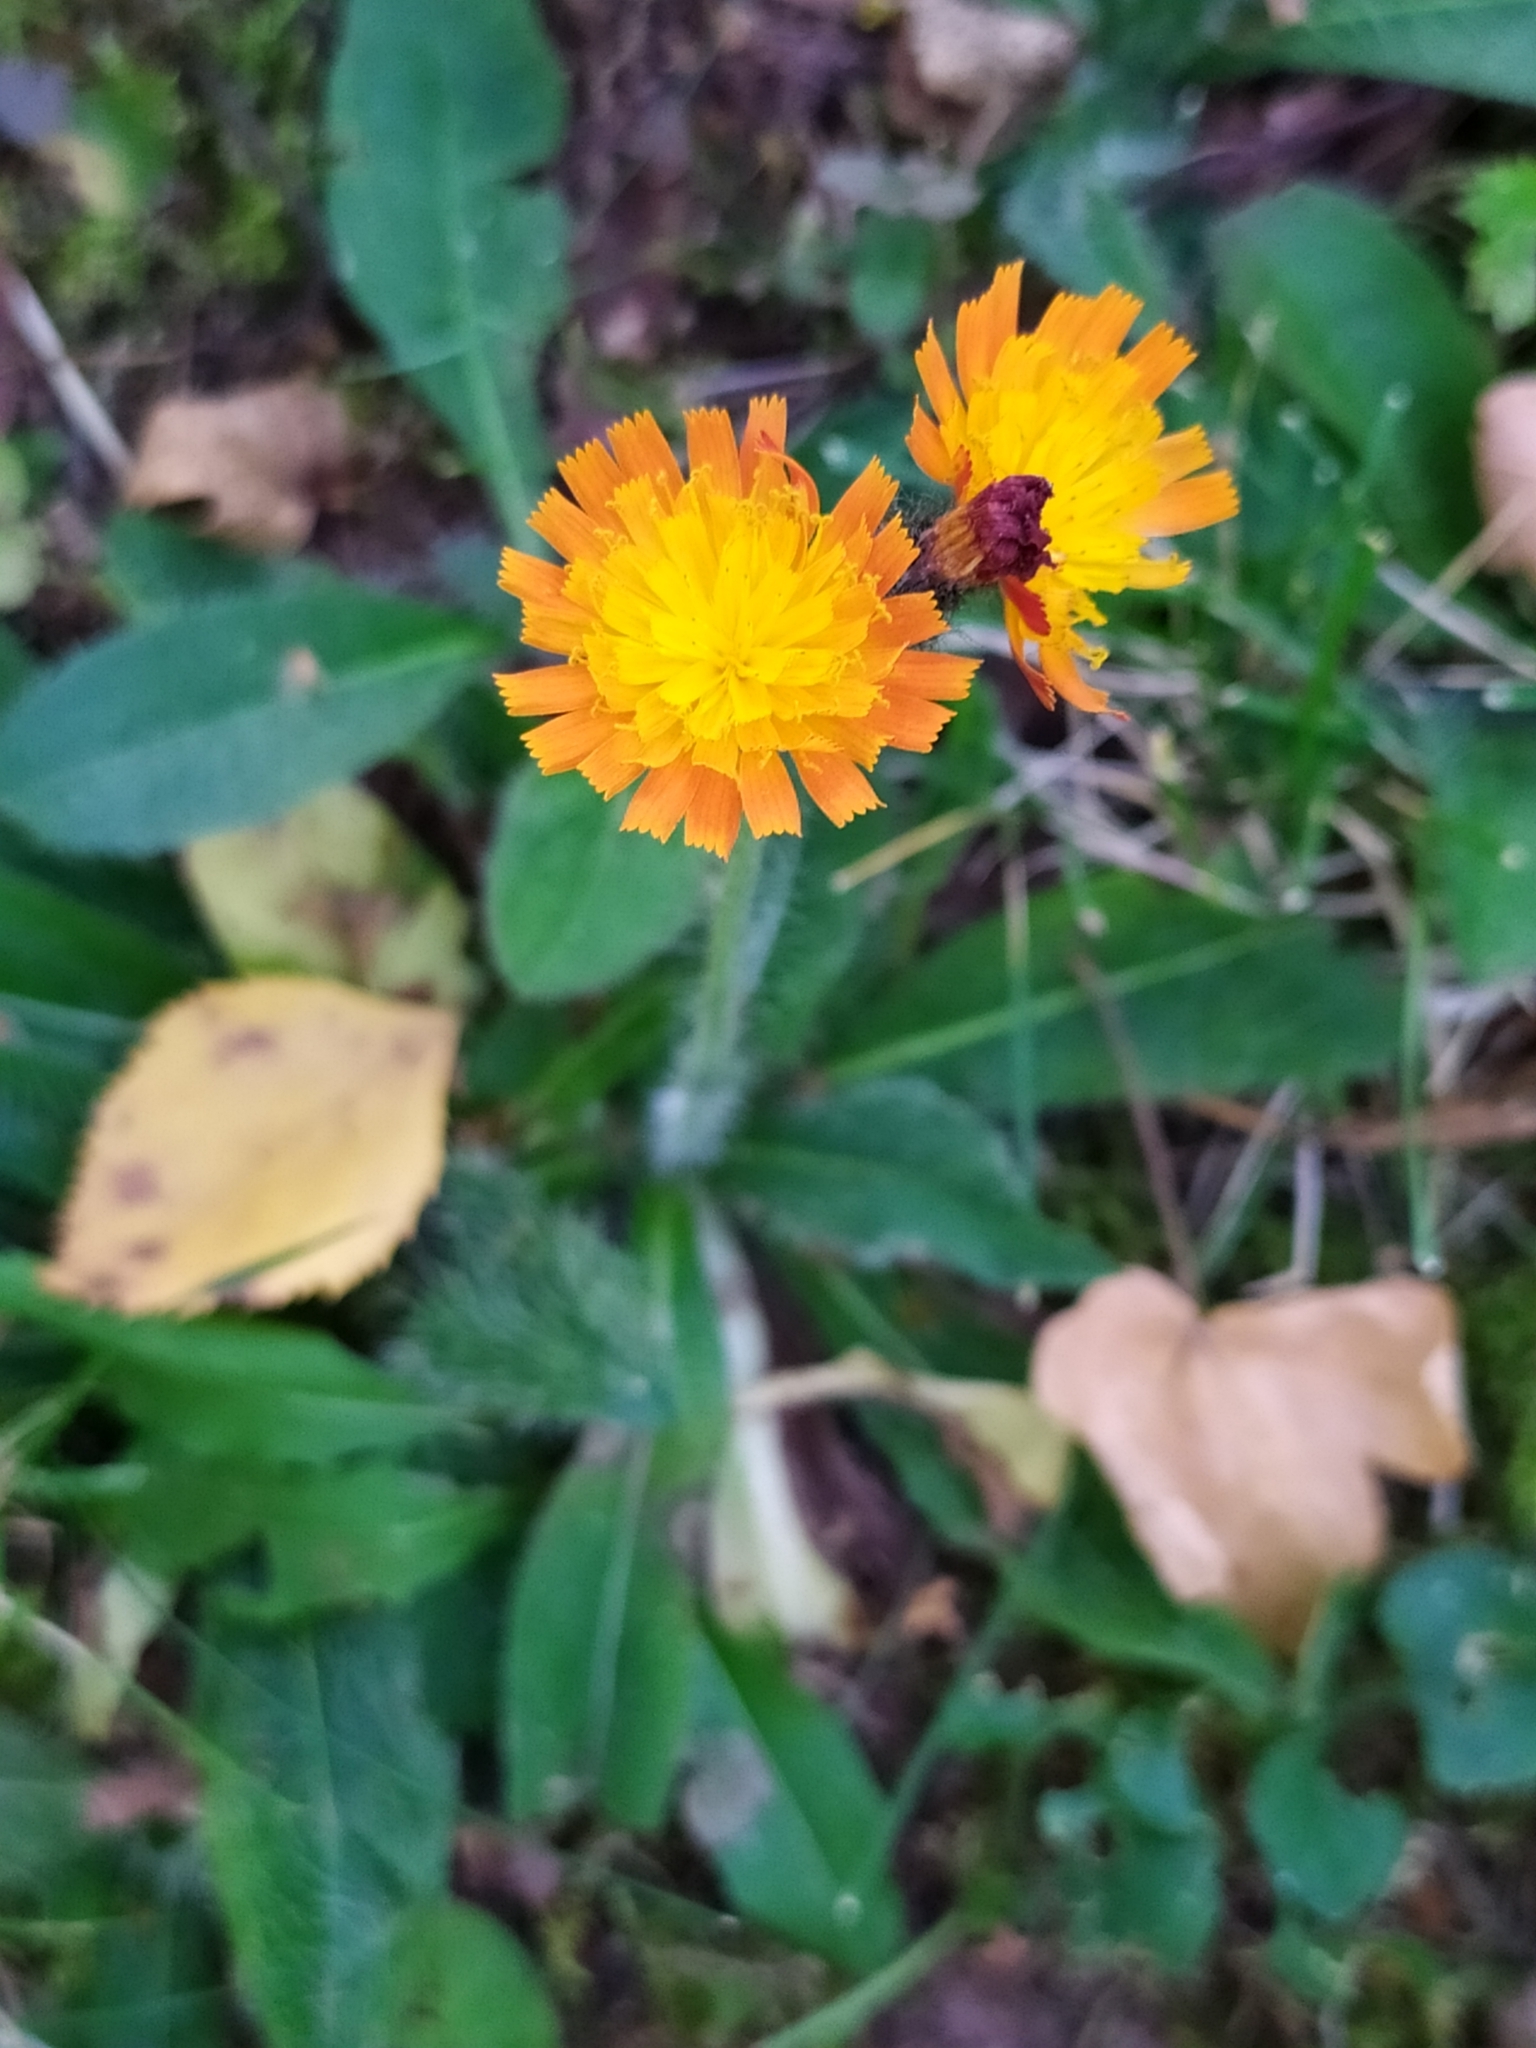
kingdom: Plantae
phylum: Tracheophyta
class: Magnoliopsida
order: Asterales
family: Asteraceae
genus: Pilosella
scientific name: Pilosella aurantiaca
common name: Fox-and-cubs
